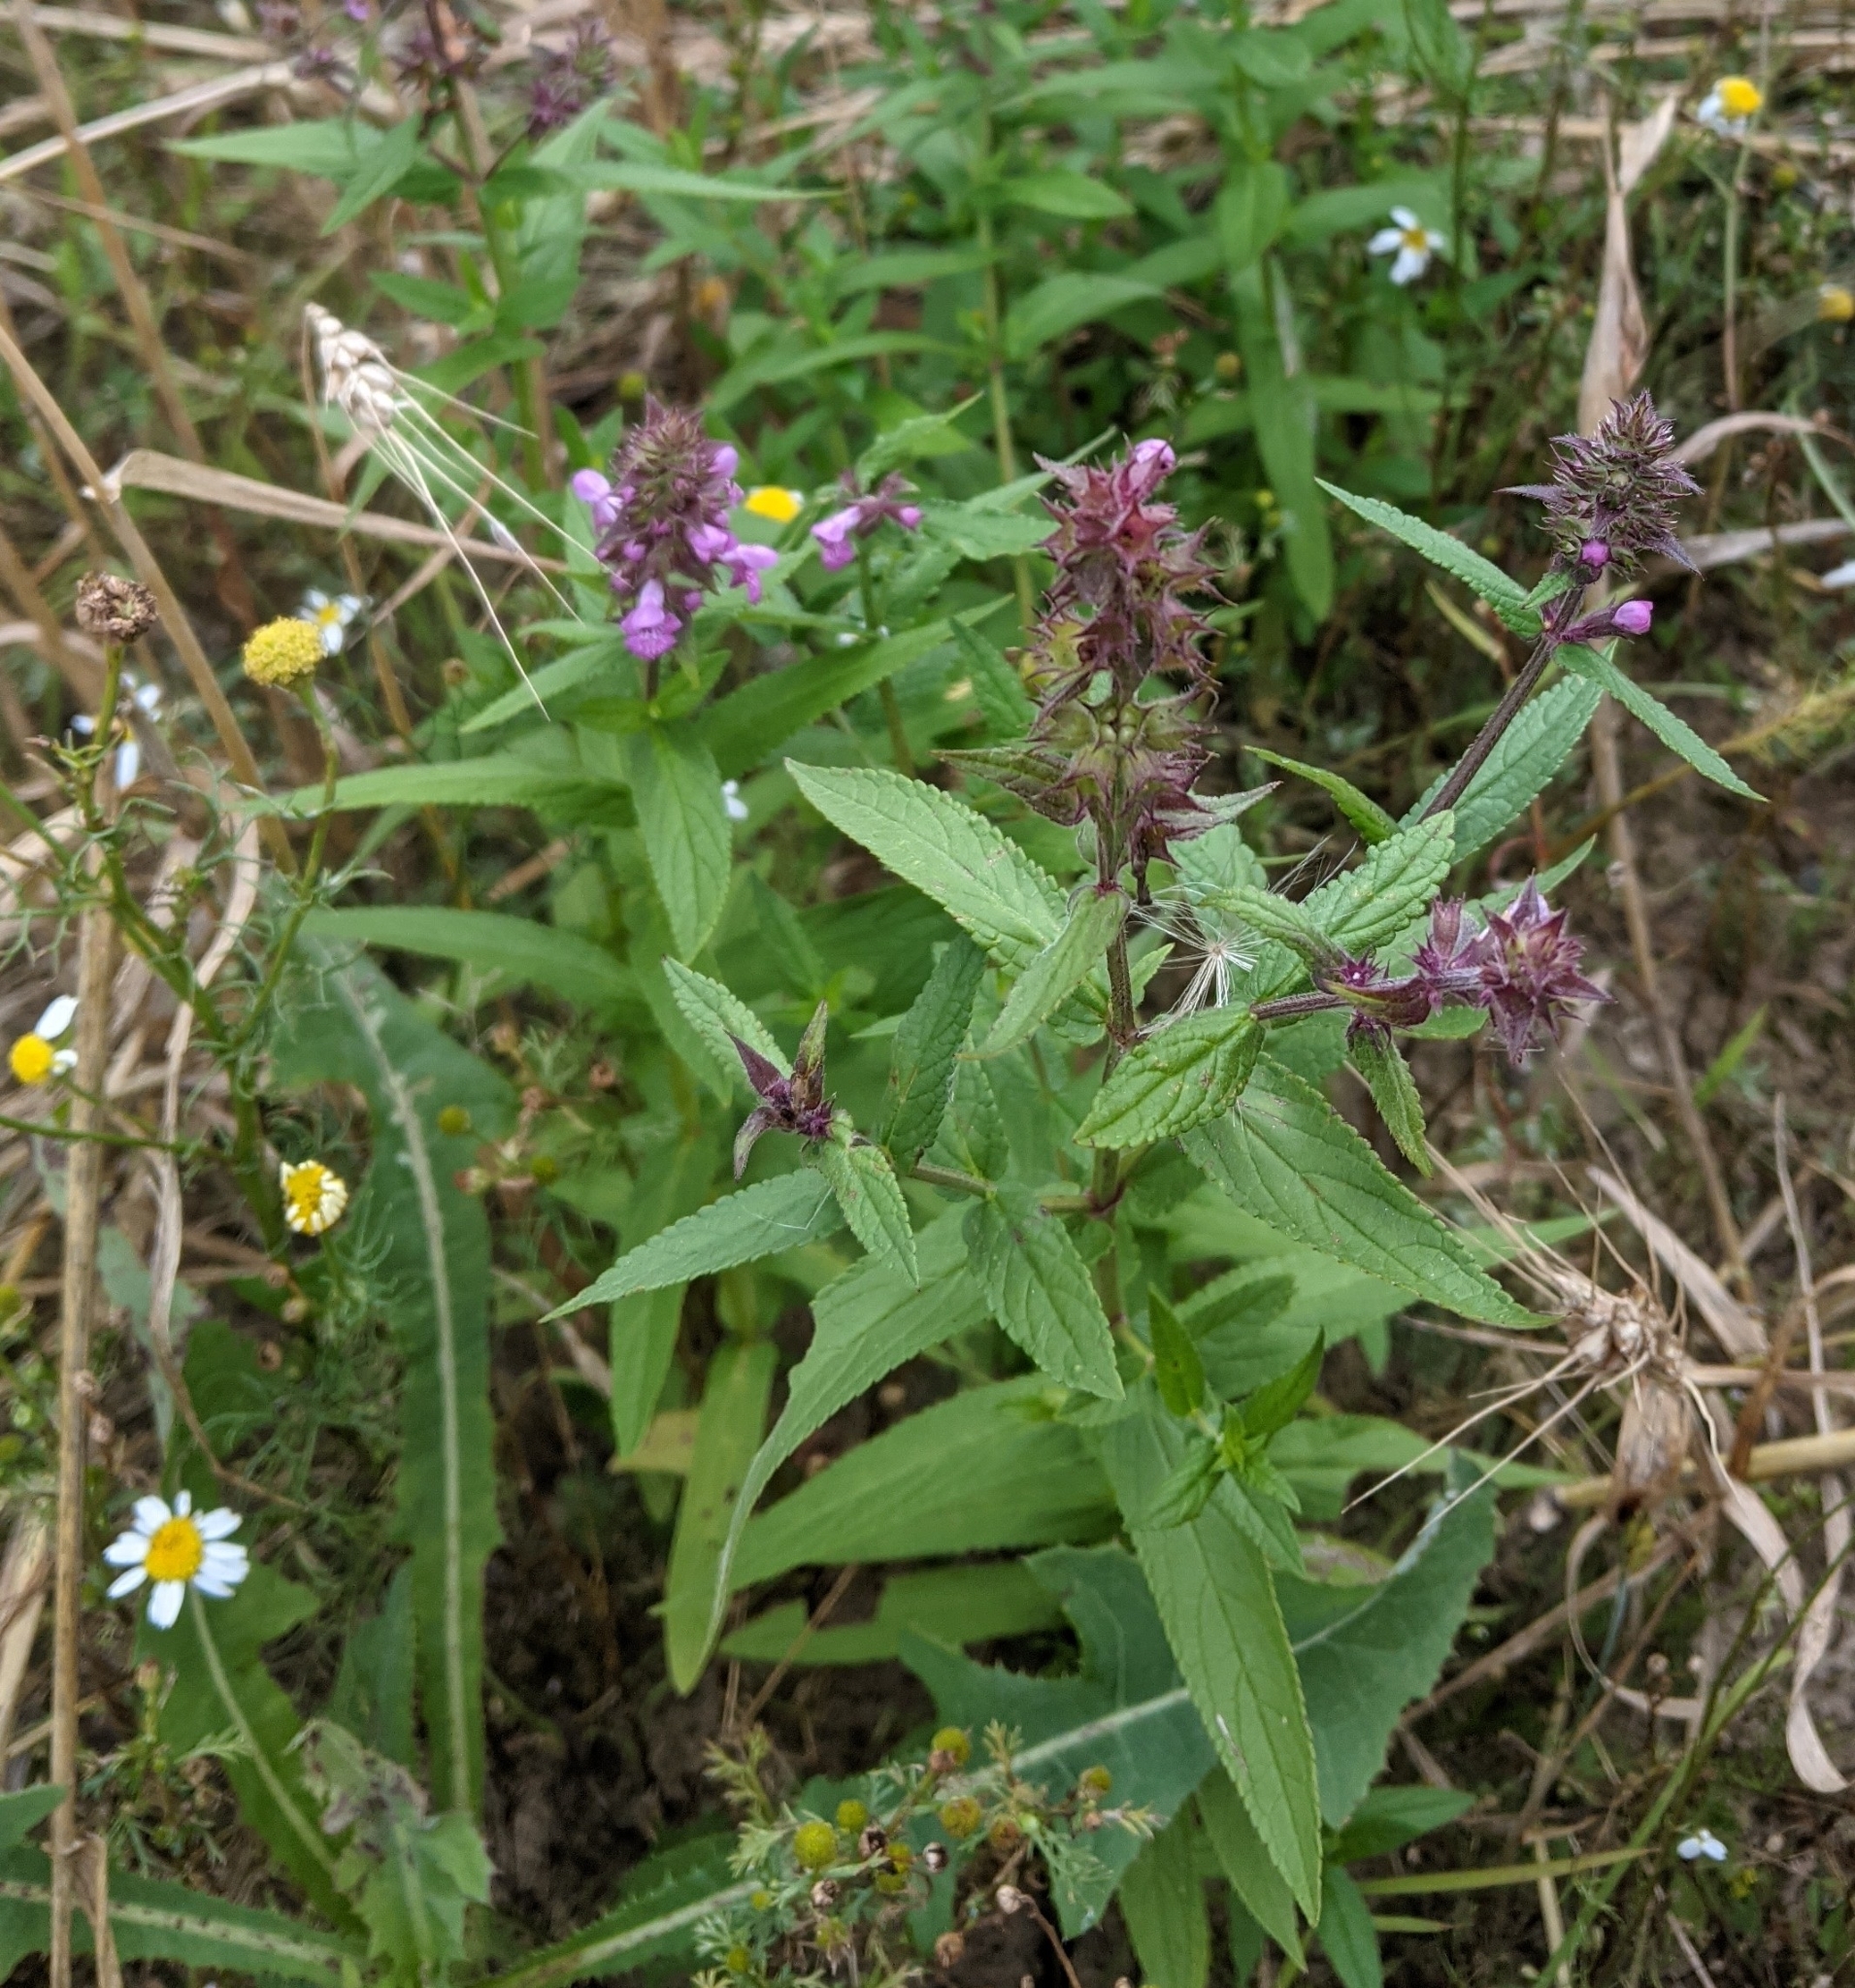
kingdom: Plantae
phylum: Tracheophyta
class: Magnoliopsida
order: Lamiales
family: Lamiaceae
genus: Stachys
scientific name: Stachys palustris
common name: Marsh woundwort
